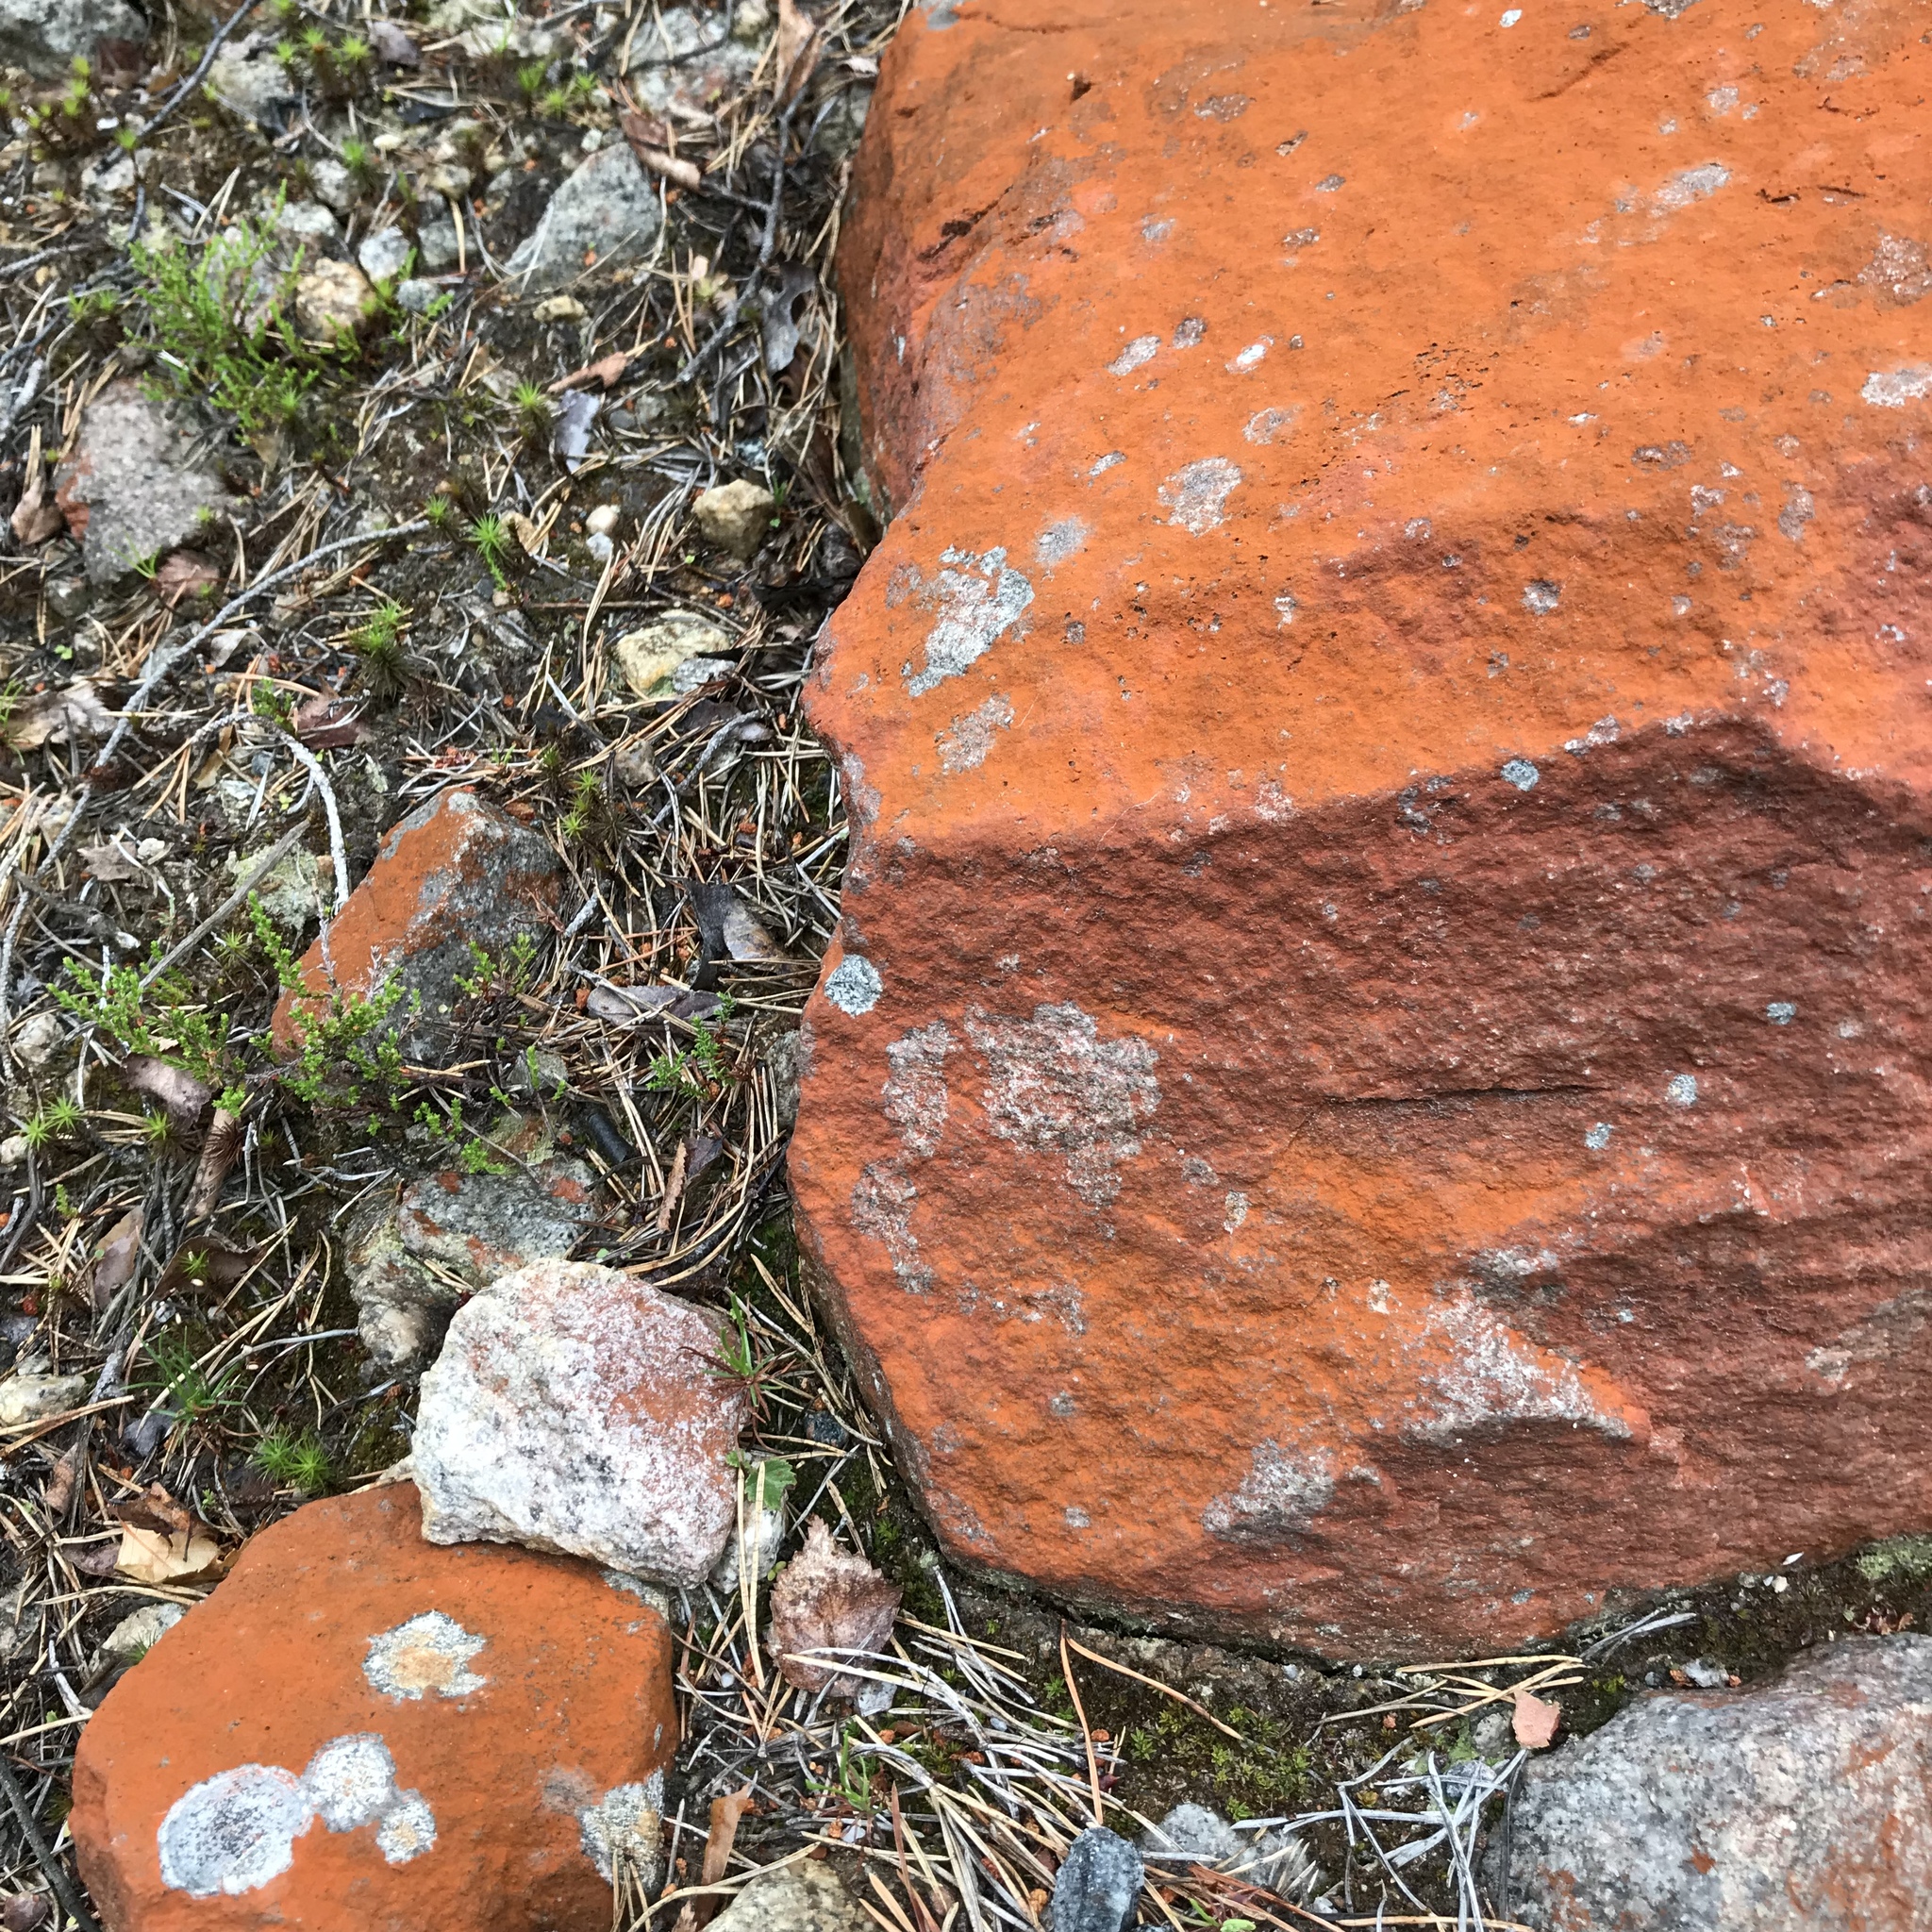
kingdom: Plantae
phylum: Chlorophyta
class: Ulvophyceae
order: Trentepohliales
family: Trentepohliaceae
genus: Trentepohlia
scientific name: Trentepohlia jolithus
